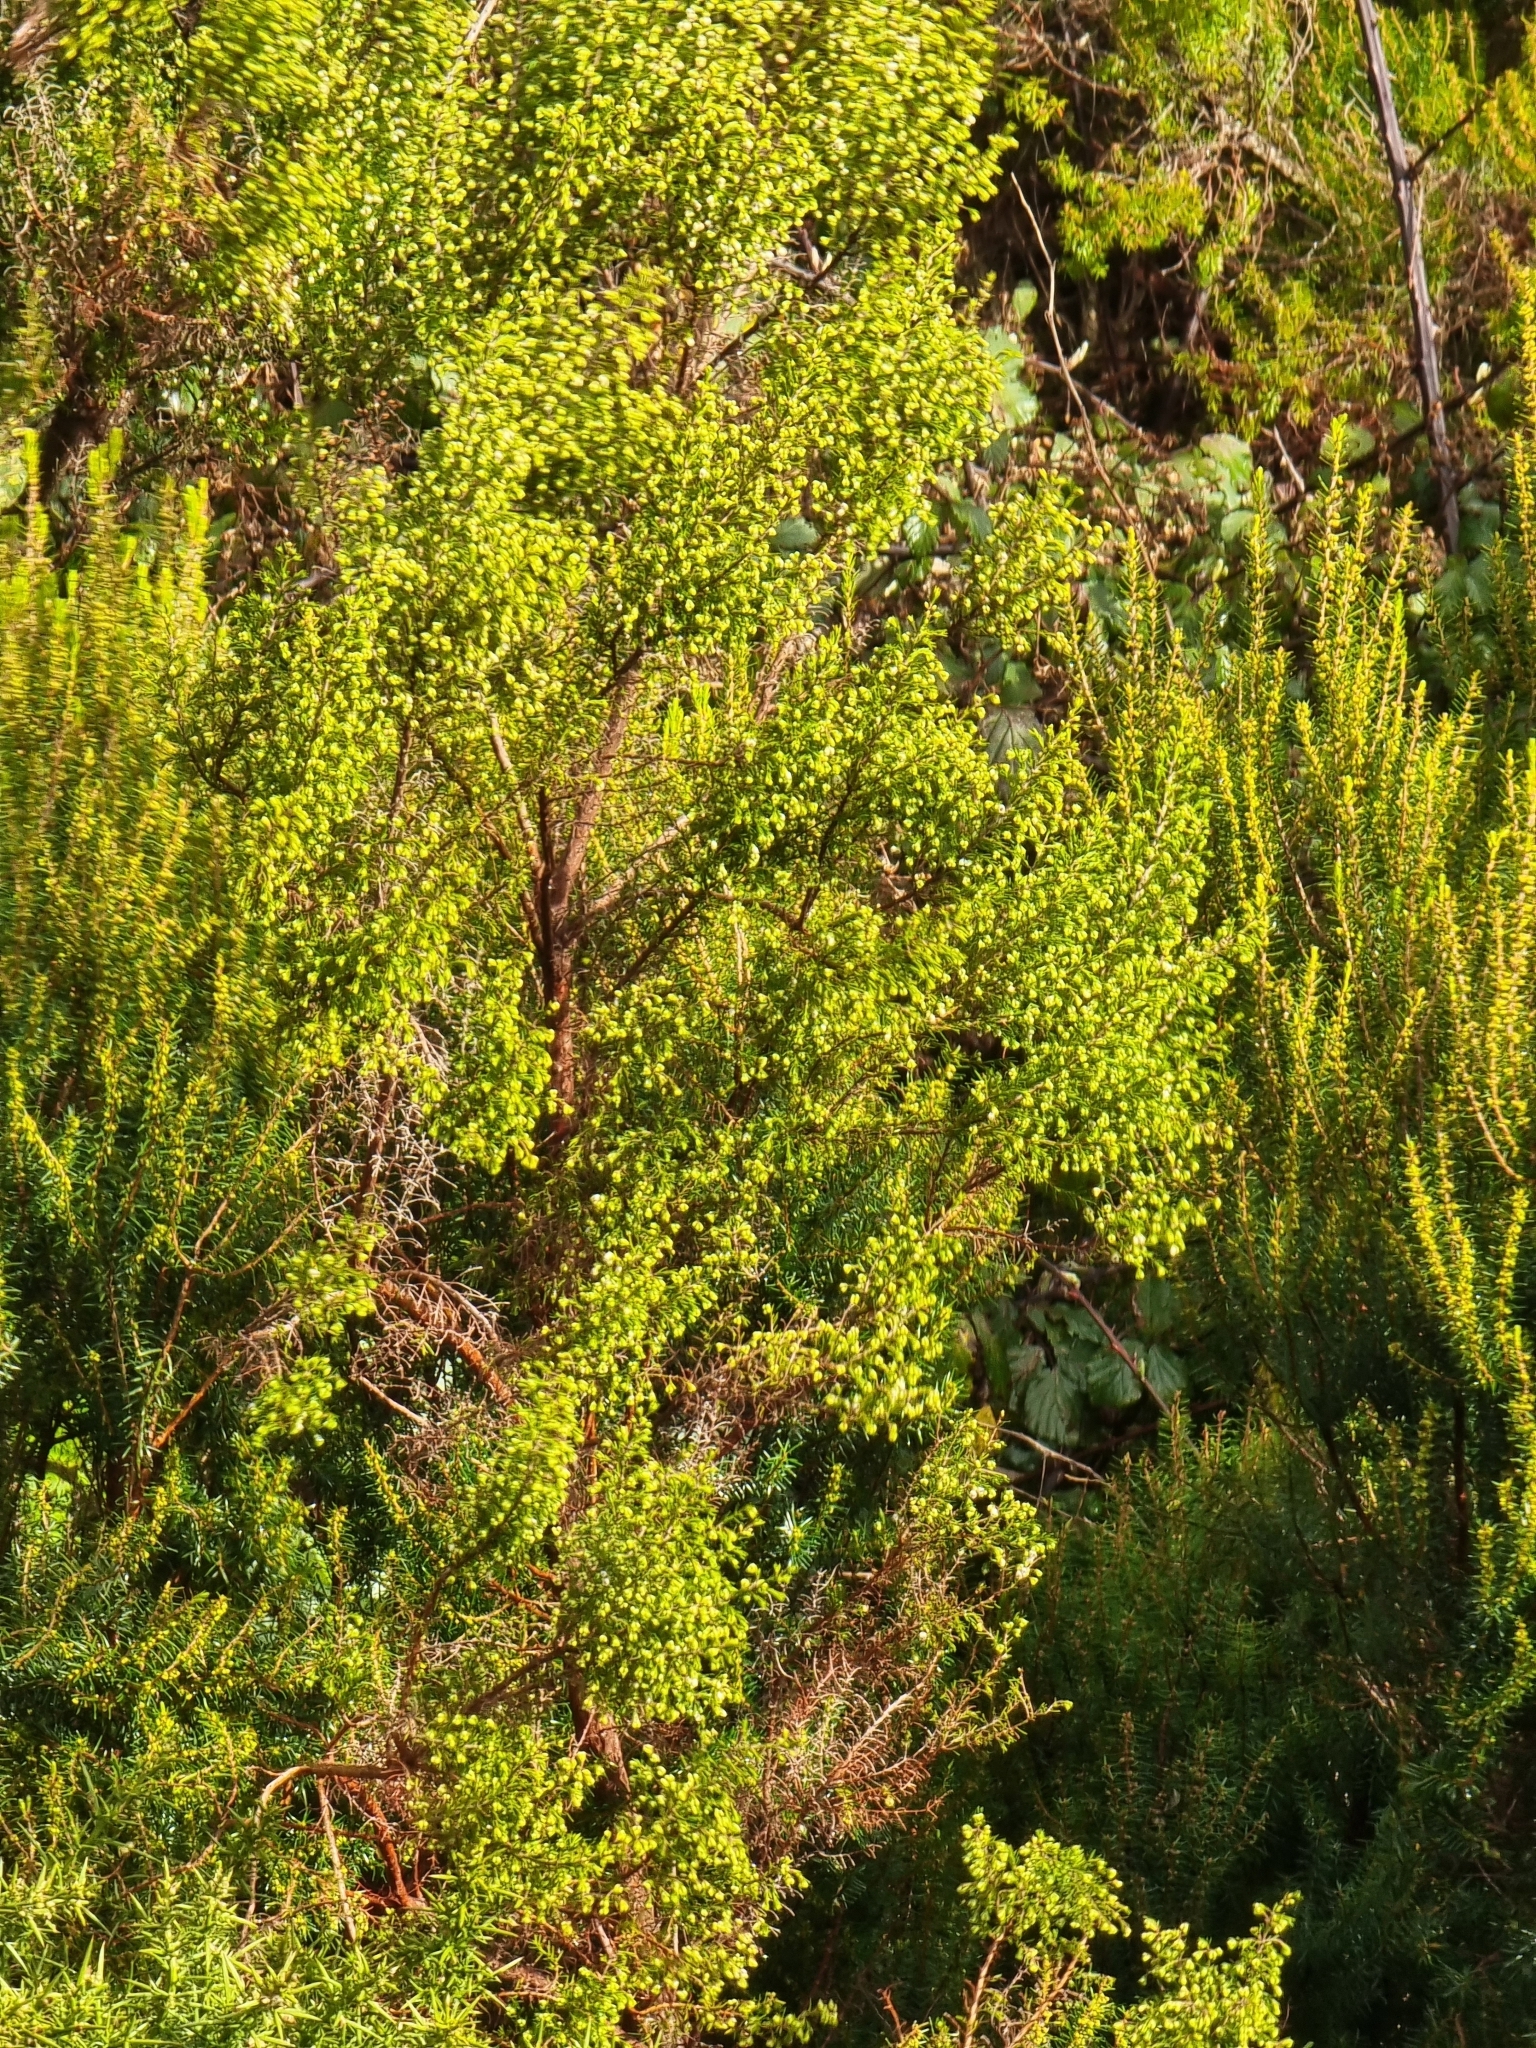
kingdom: Plantae
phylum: Tracheophyta
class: Magnoliopsida
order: Ericales
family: Ericaceae
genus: Erica
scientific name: Erica canariensis
